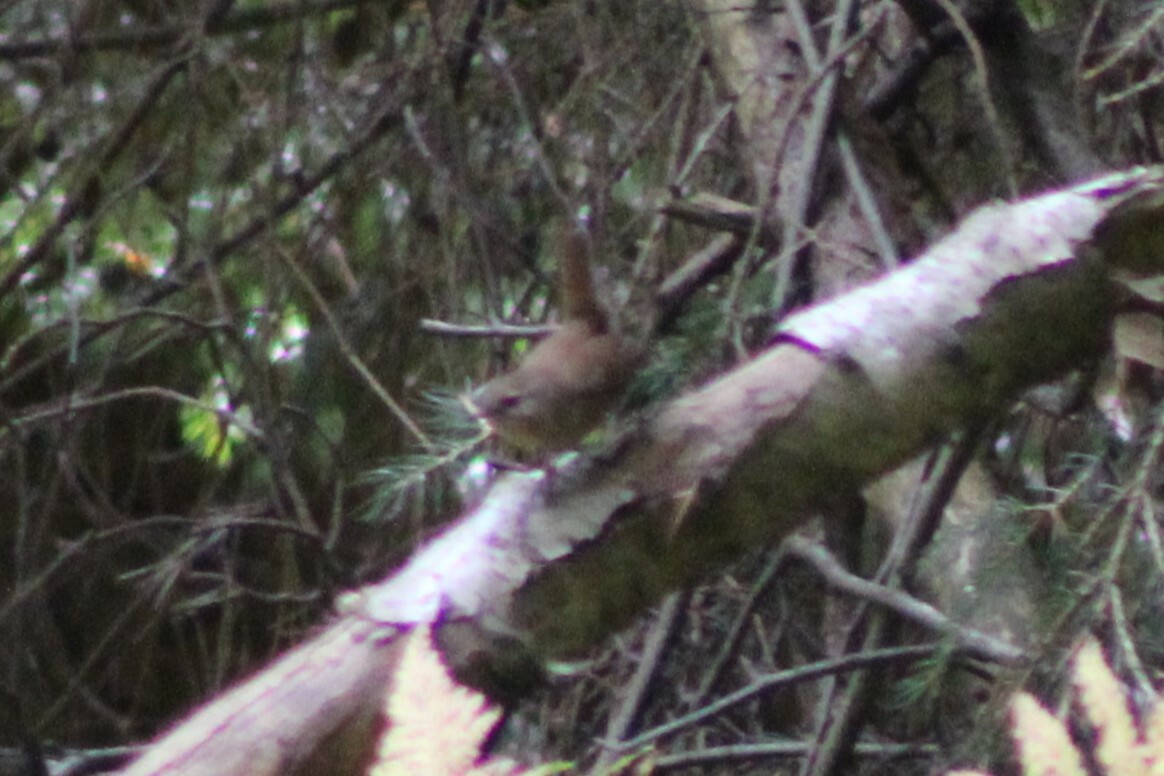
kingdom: Animalia
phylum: Chordata
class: Aves
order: Passeriformes
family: Troglodytidae
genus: Troglodytes
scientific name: Troglodytes troglodytes
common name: Eurasian wren
